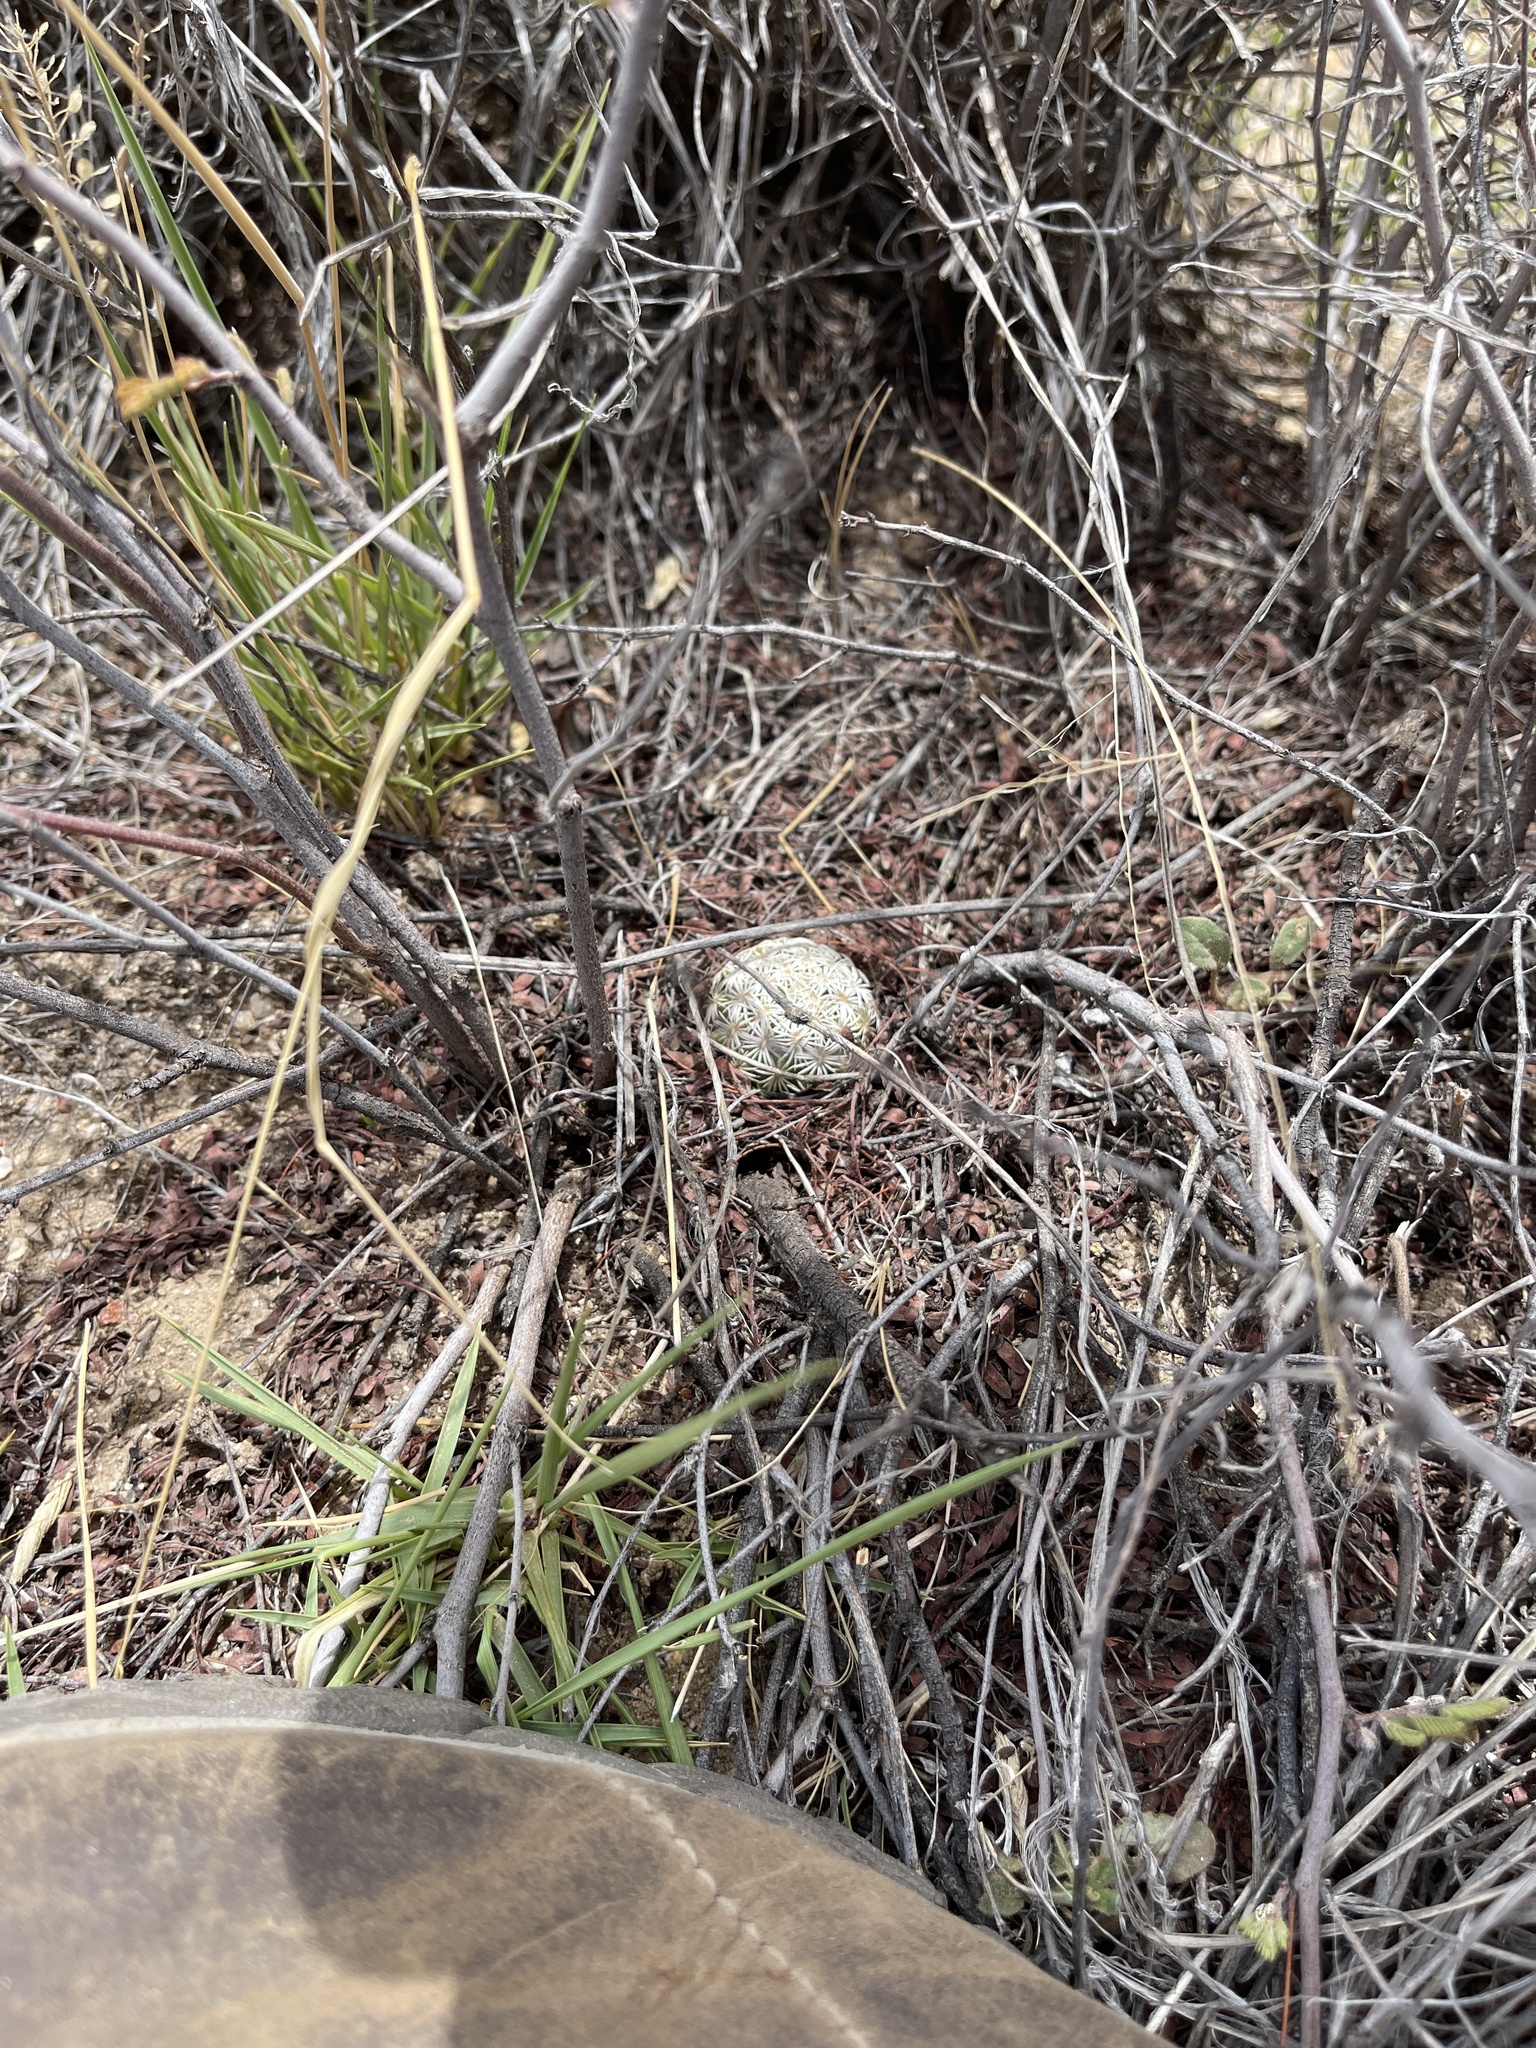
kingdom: Plantae
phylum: Tracheophyta
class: Magnoliopsida
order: Caryophyllales
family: Cactaceae
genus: Sclerocactus
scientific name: Sclerocactus johnsonii
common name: Eight-spine fishhook cactus
